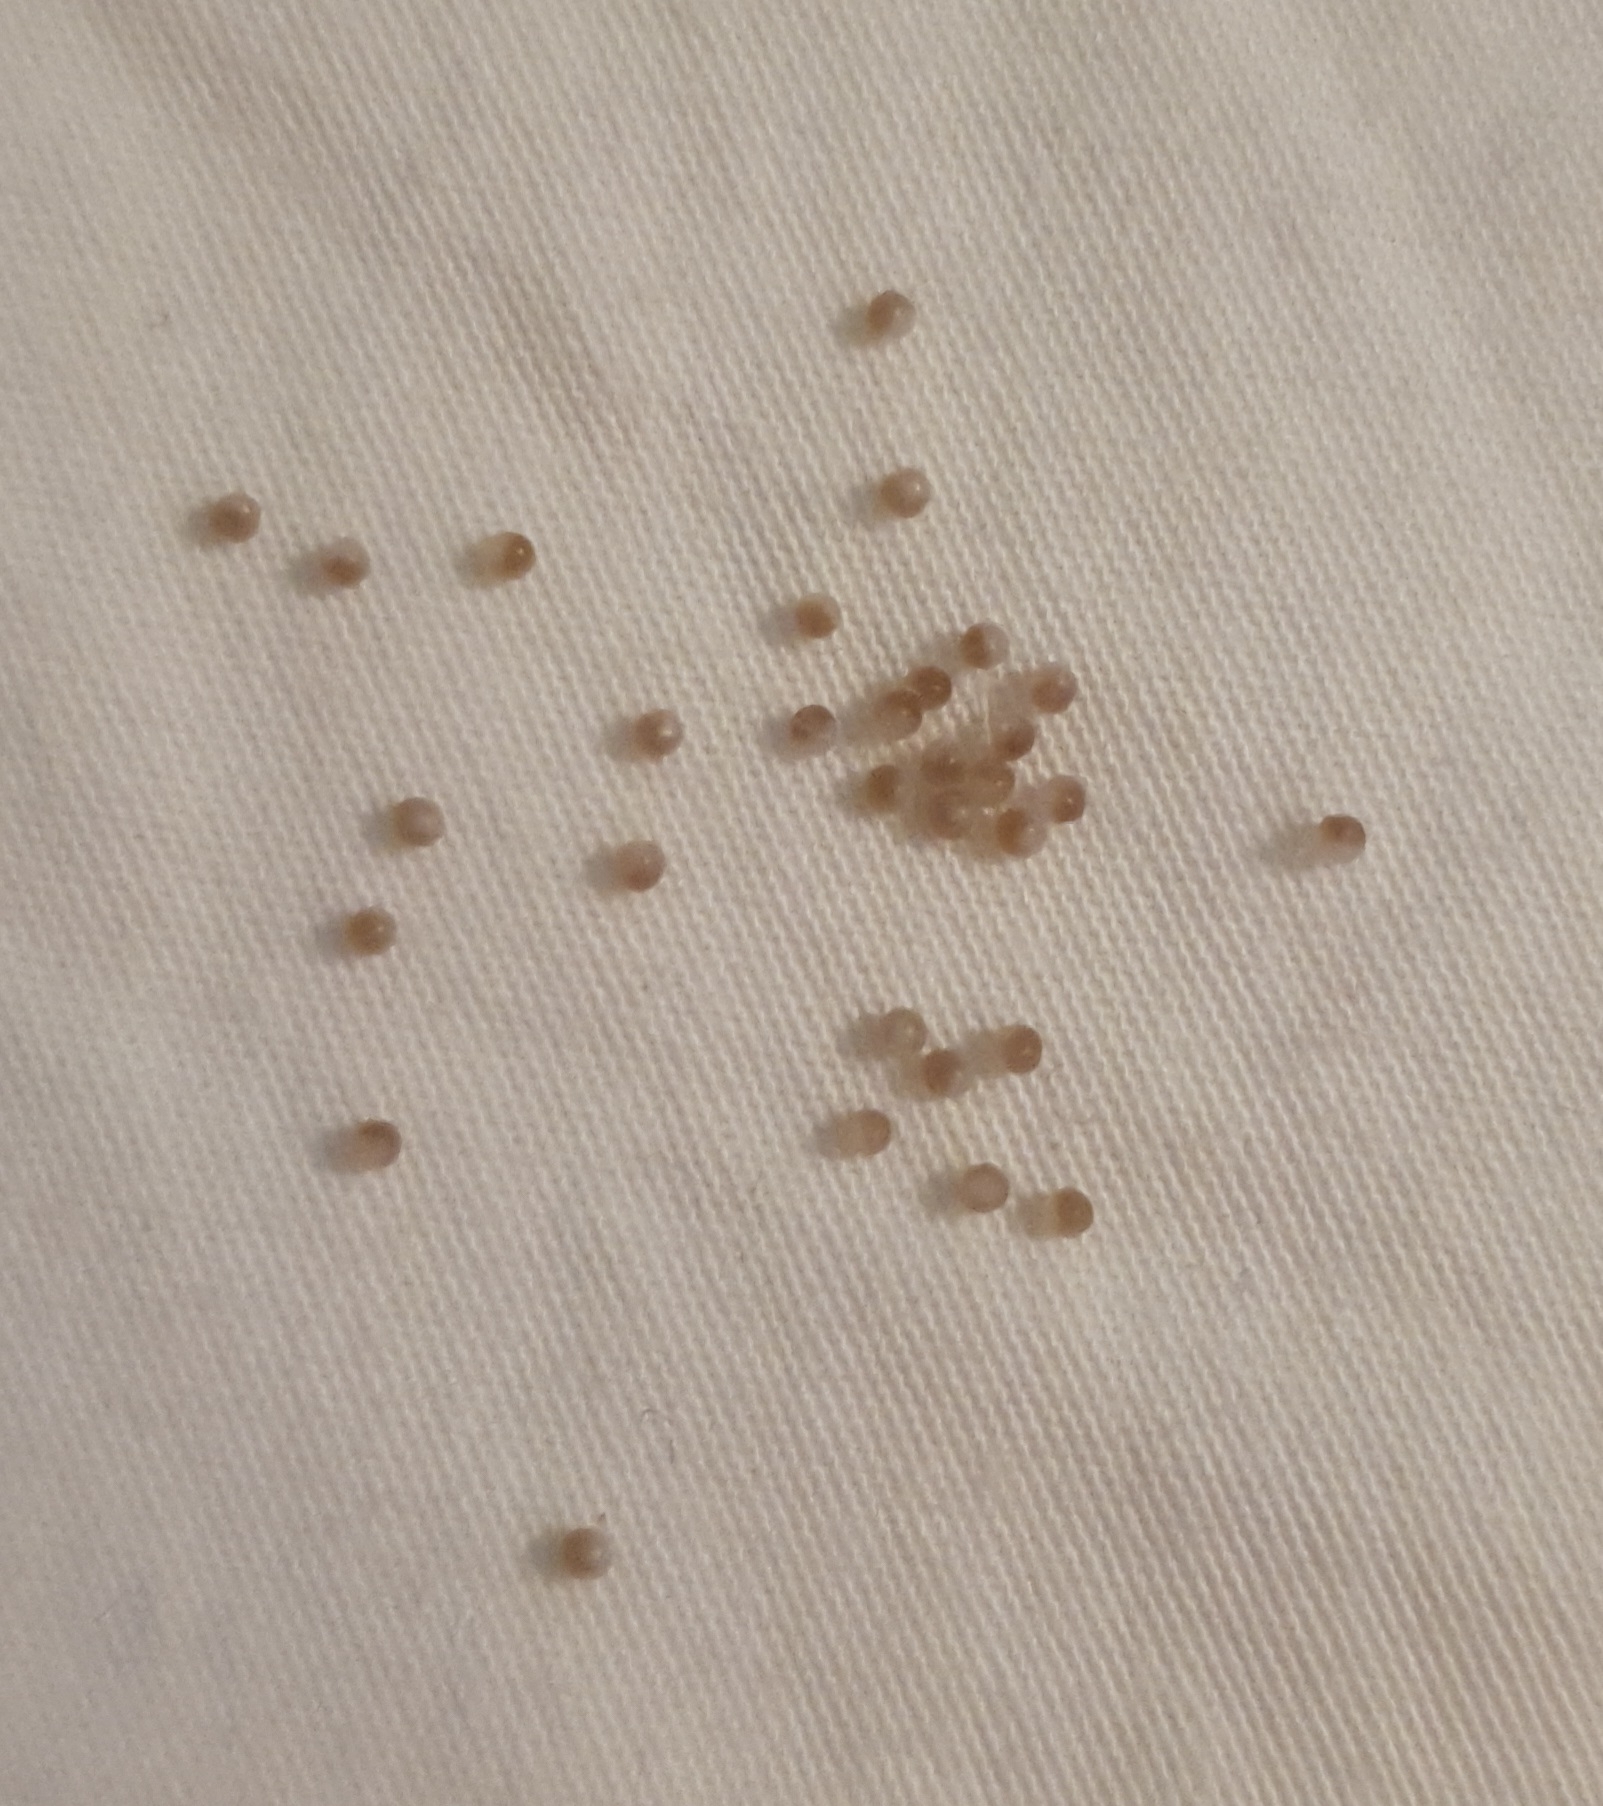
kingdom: Animalia
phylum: Arthropoda
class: Arachnida
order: Araneae
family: Pholcidae
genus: Pholcus
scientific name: Pholcus phalangioides
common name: Longbodied cellar spider
